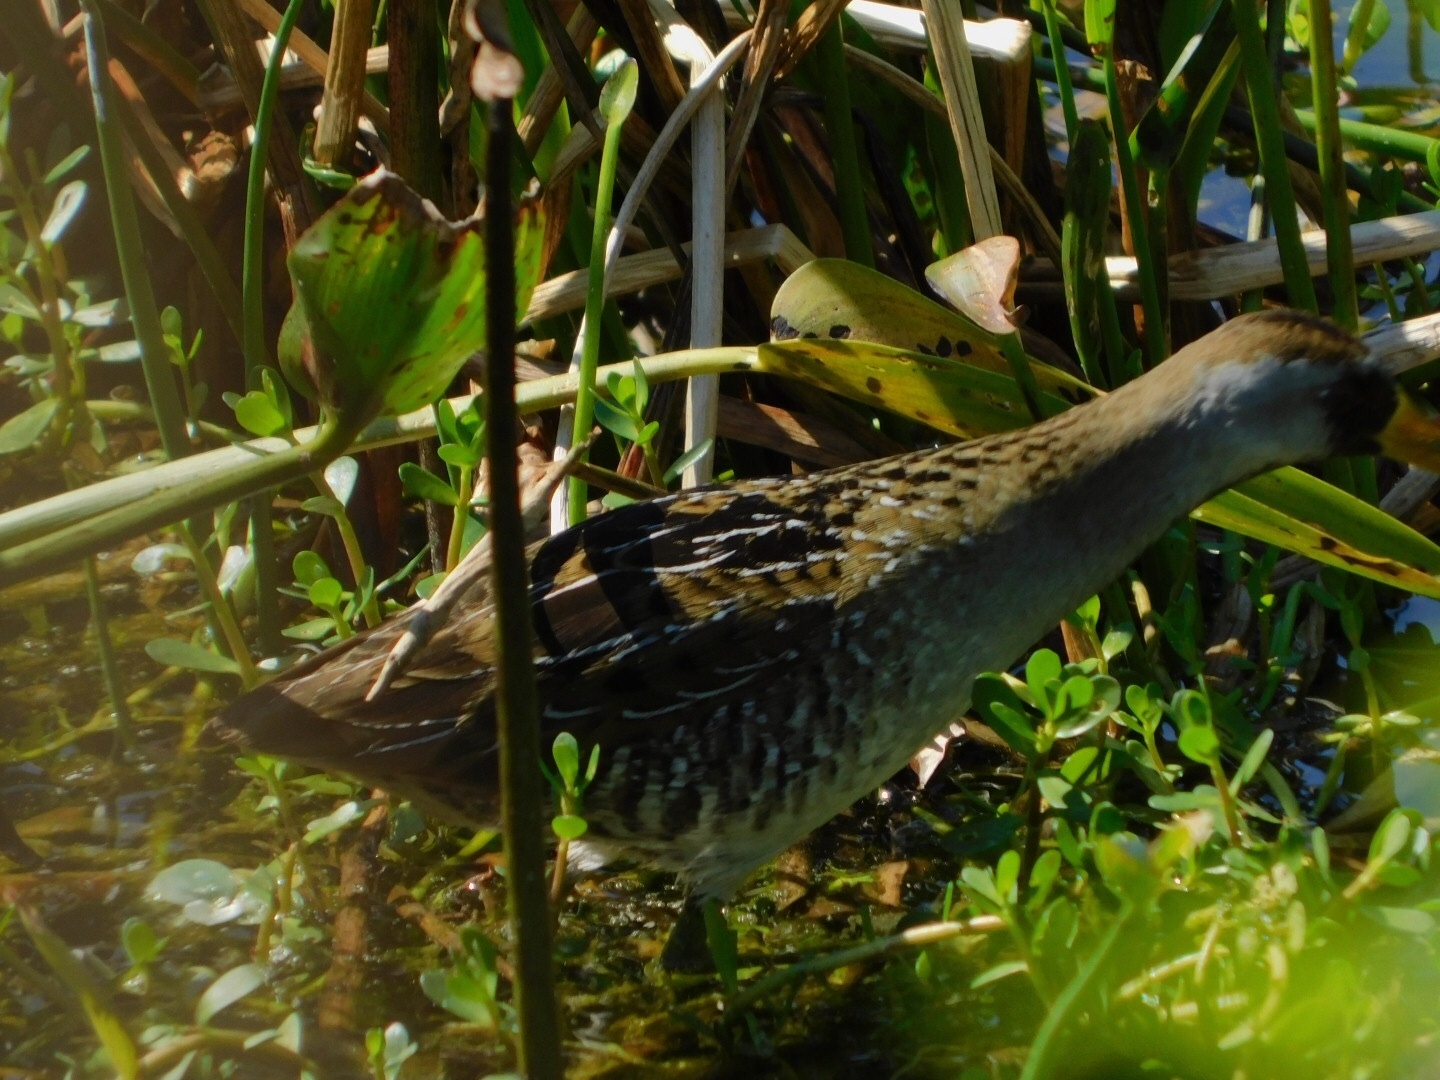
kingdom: Animalia
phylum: Chordata
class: Aves
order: Gruiformes
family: Rallidae
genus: Porzana
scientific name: Porzana carolina
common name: Sora
